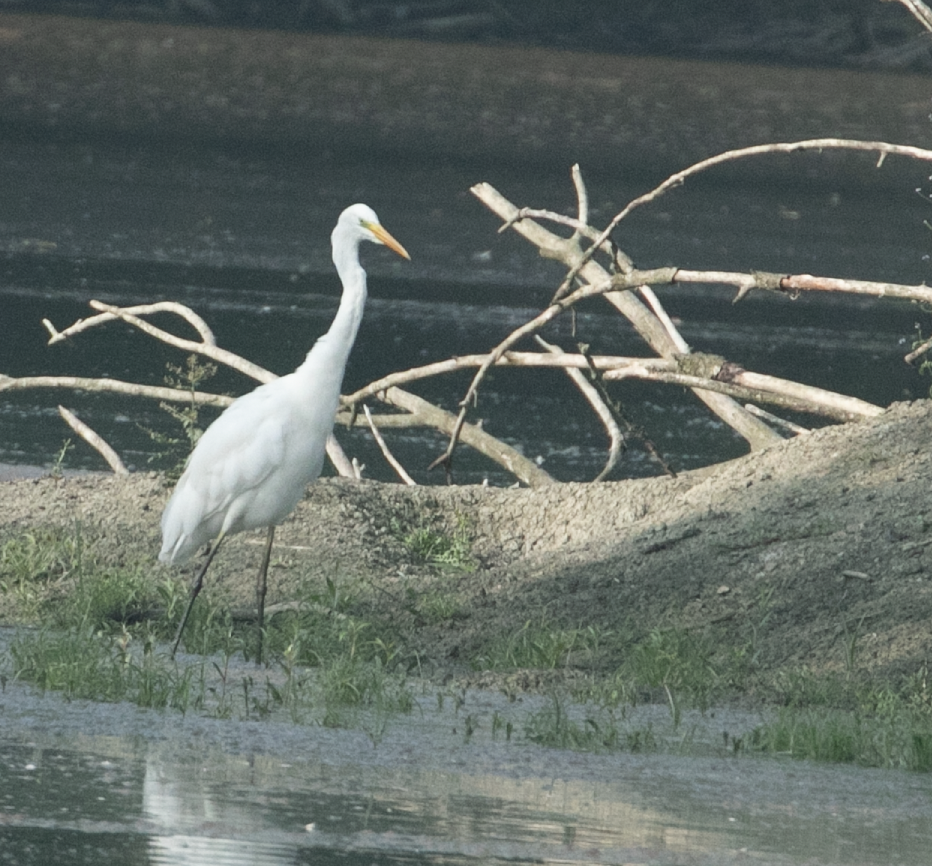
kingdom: Animalia
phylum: Chordata
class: Aves
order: Pelecaniformes
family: Ardeidae
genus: Ardea
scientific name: Ardea alba
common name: Great egret
